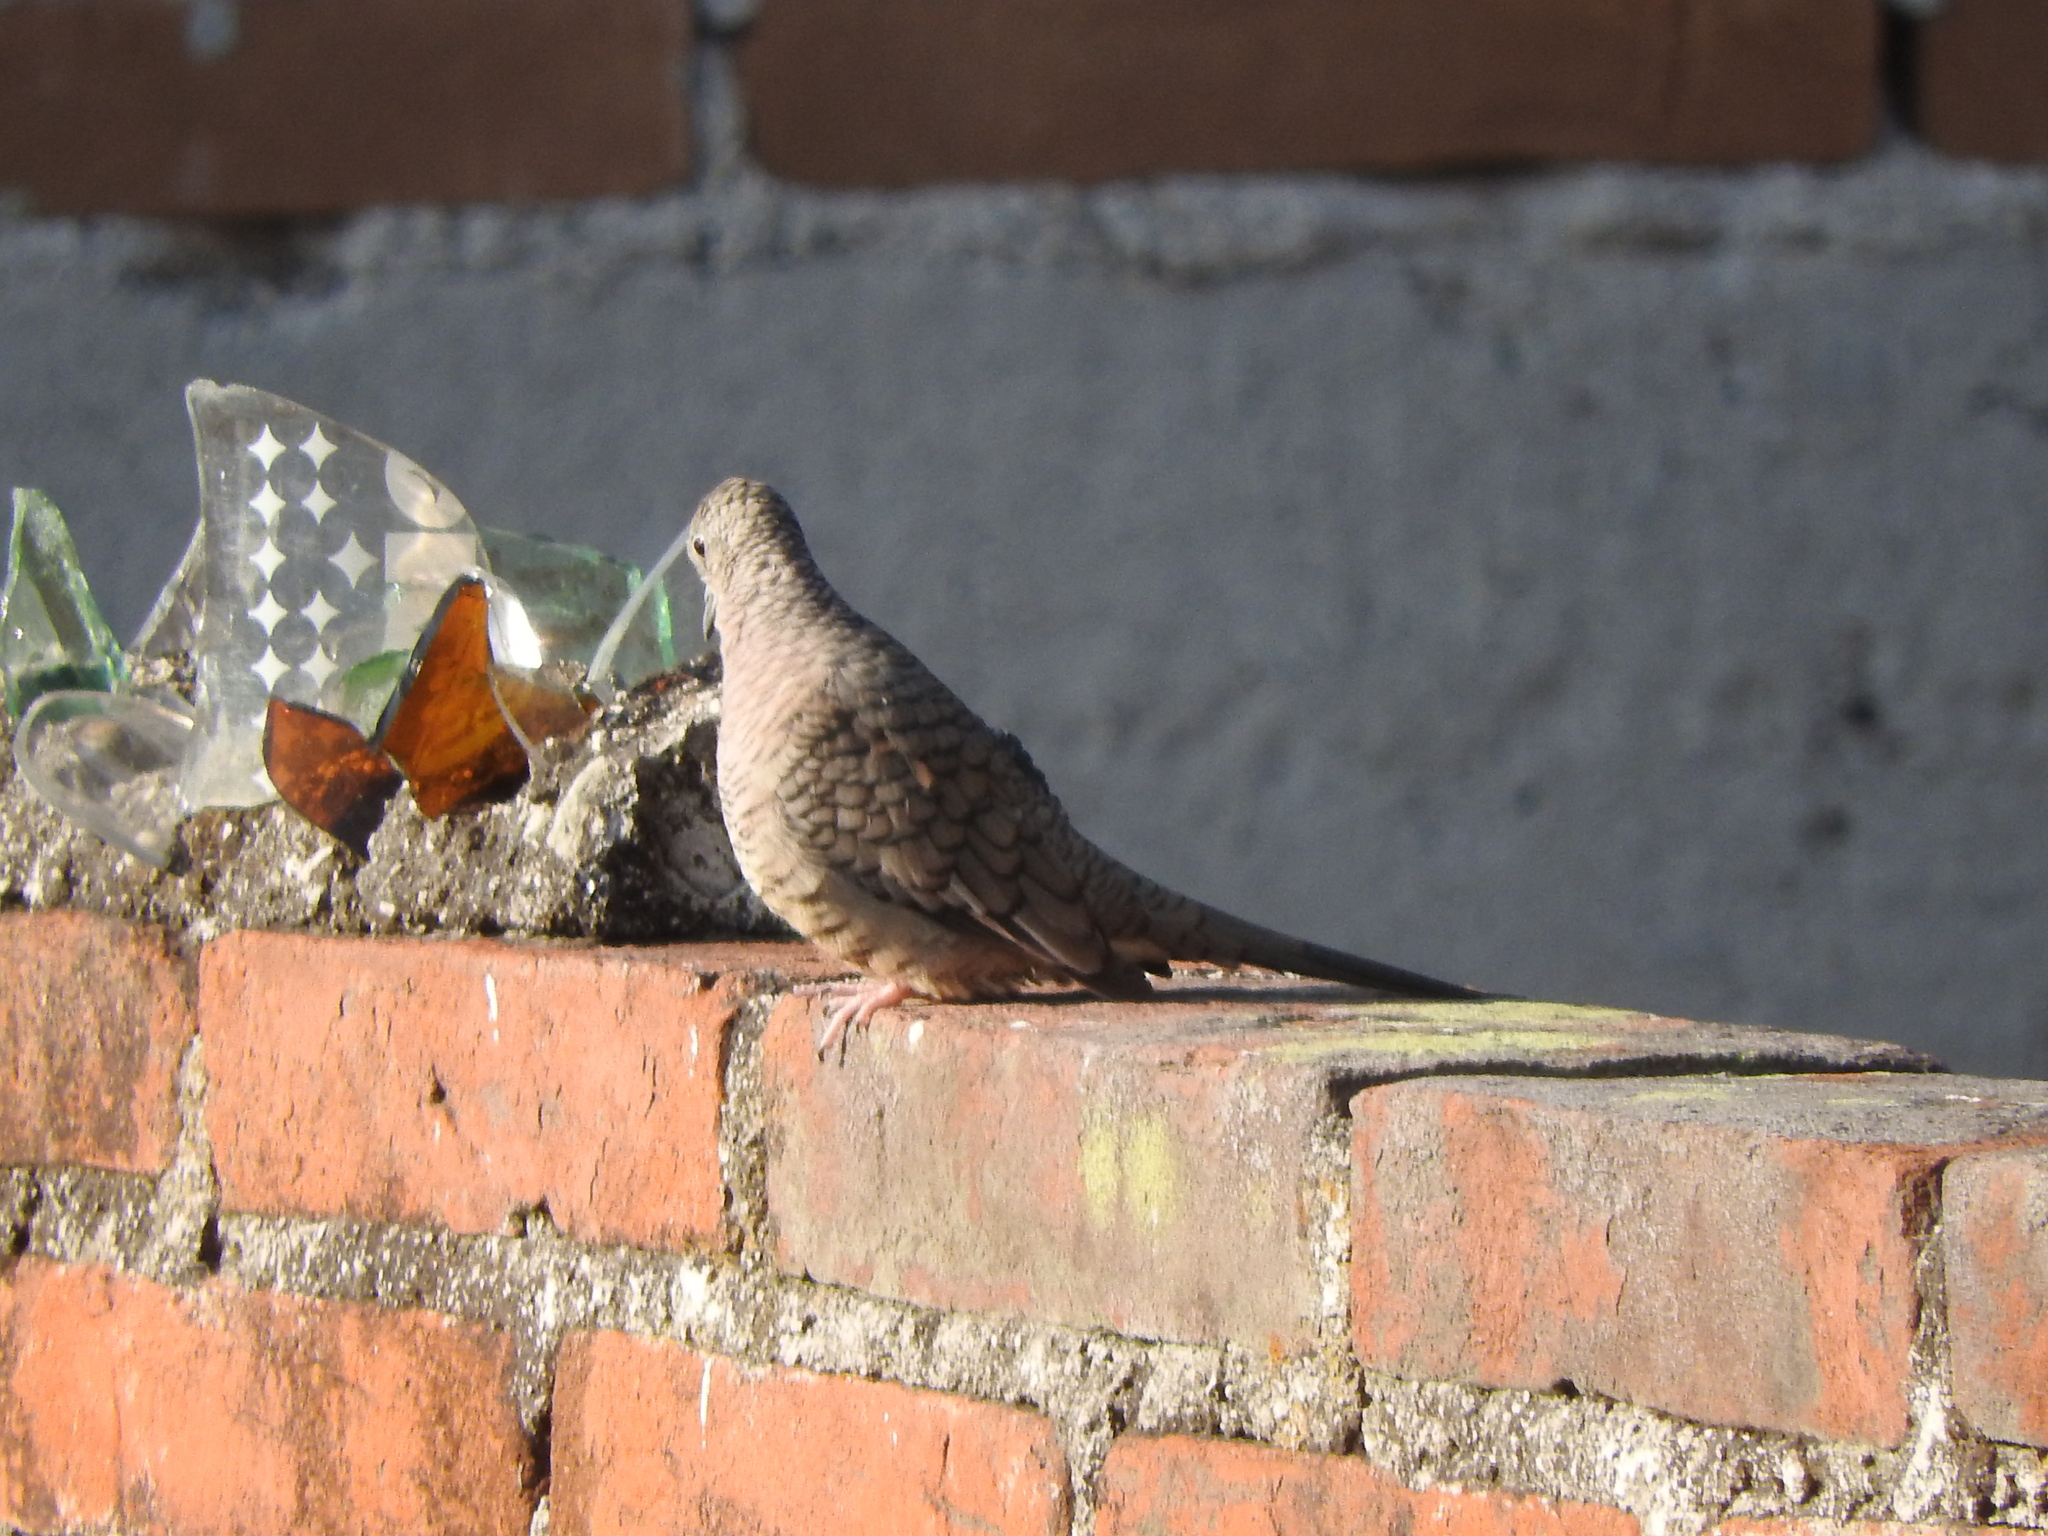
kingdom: Animalia
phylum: Chordata
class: Aves
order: Columbiformes
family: Columbidae
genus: Columbina
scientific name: Columbina inca
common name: Inca dove
